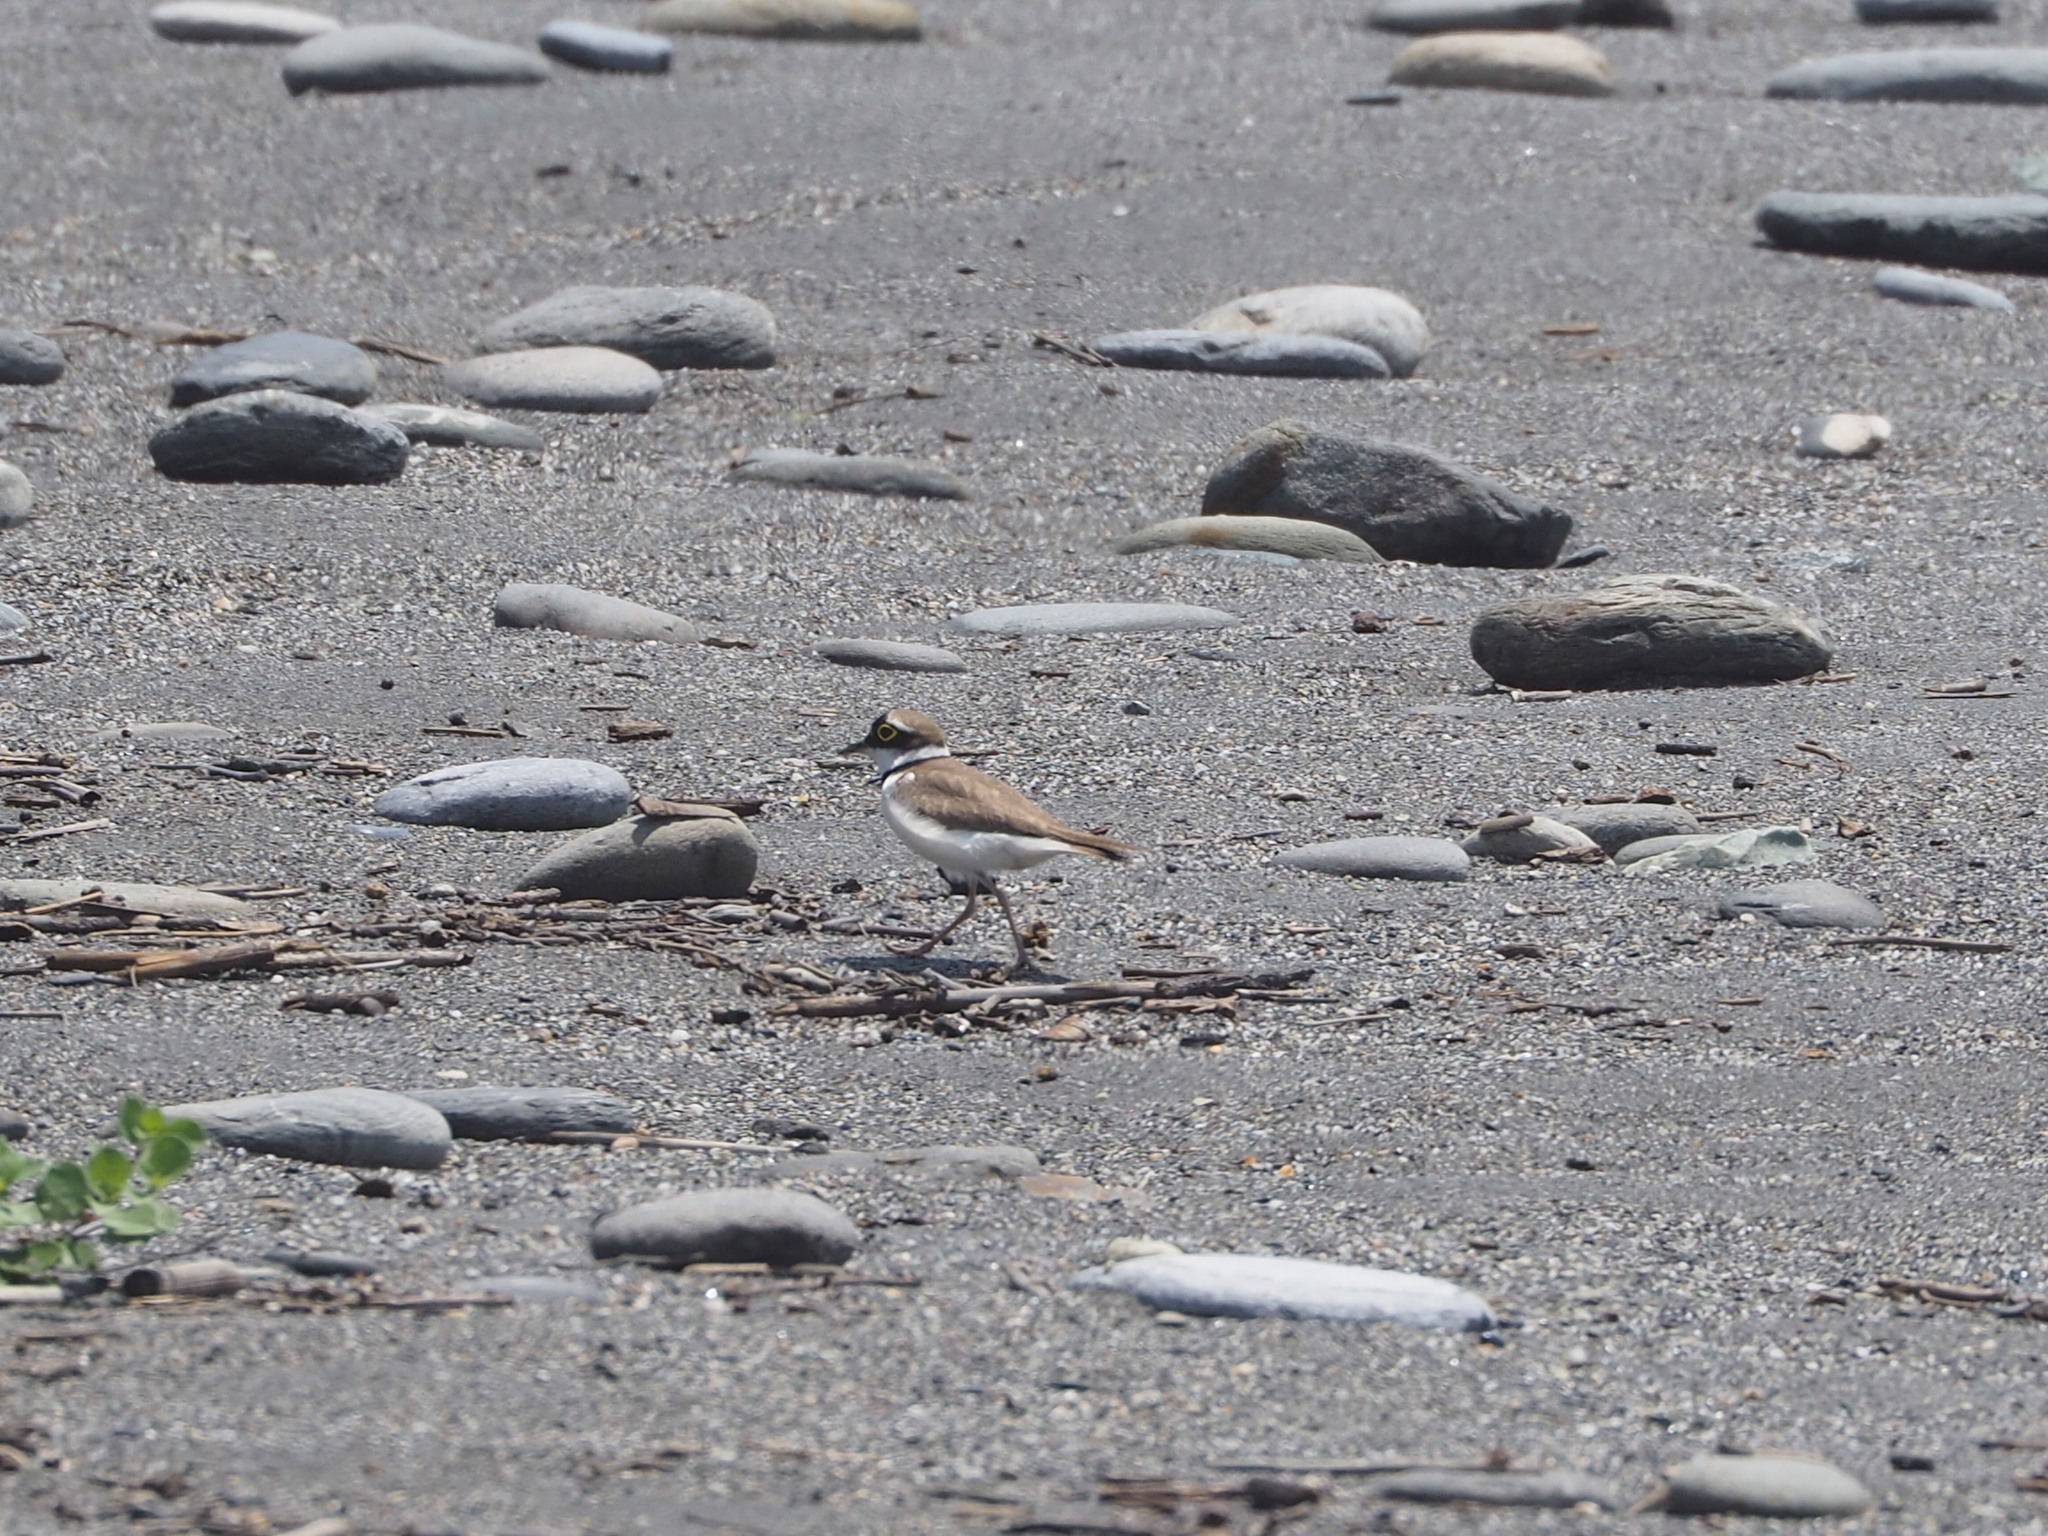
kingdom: Animalia
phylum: Chordata
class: Aves
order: Charadriiformes
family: Charadriidae
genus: Charadrius
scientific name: Charadrius dubius
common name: Little ringed plover
